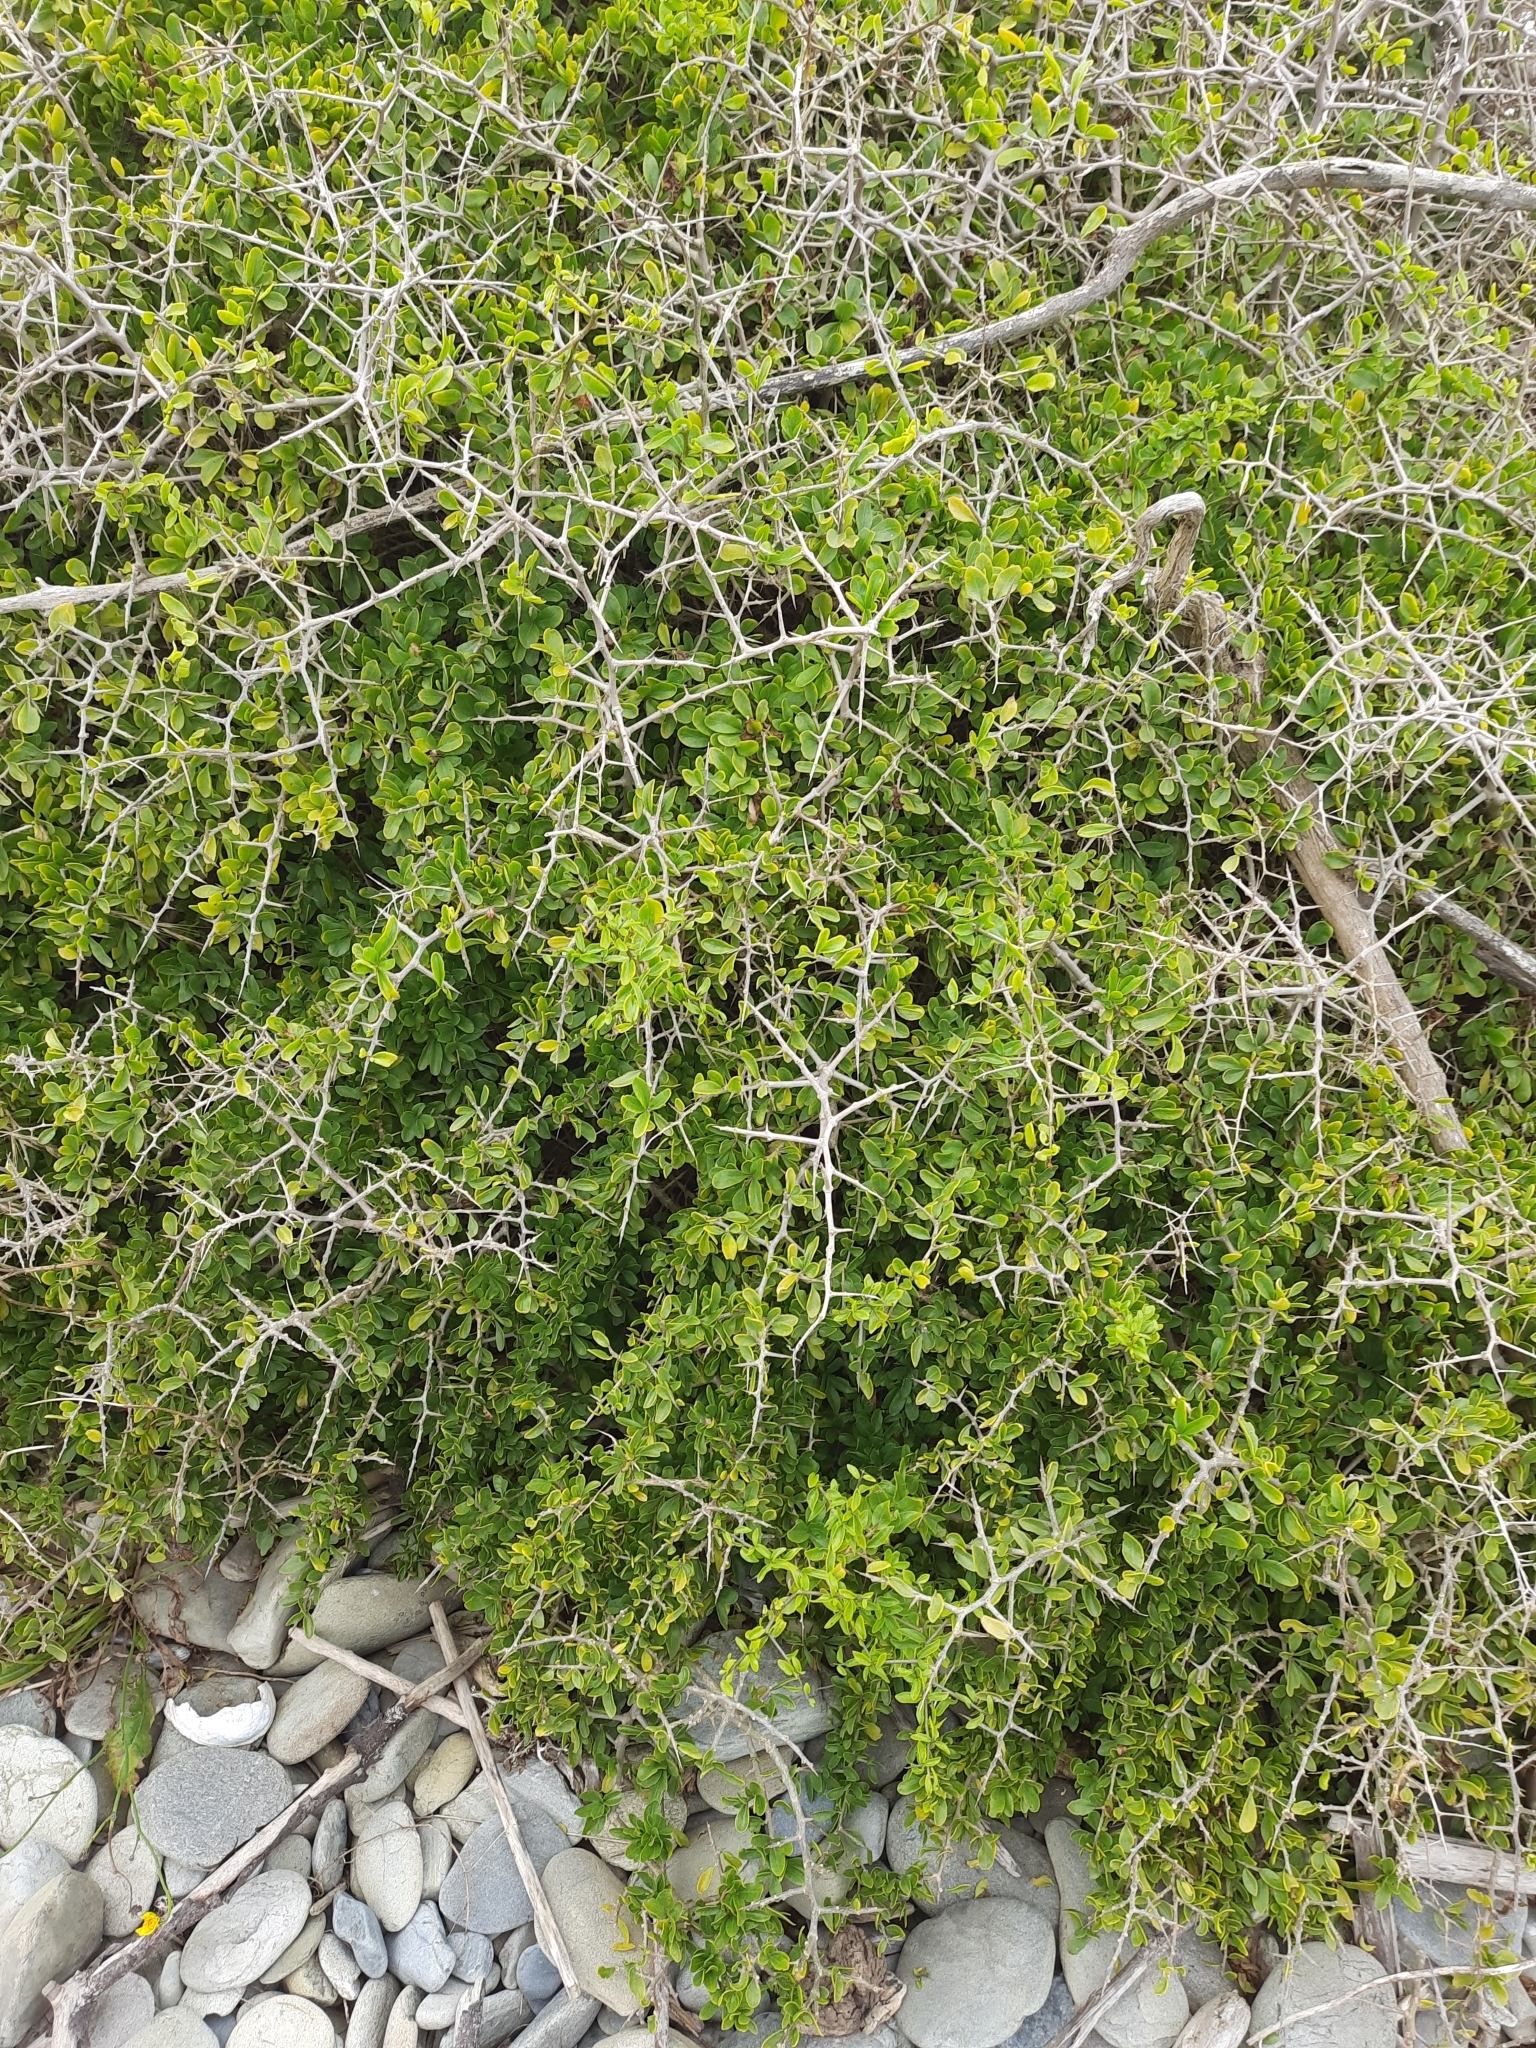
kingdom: Plantae
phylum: Tracheophyta
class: Magnoliopsida
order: Solanales
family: Solanaceae
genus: Lycium
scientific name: Lycium ferocissimum
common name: African boxthorn
